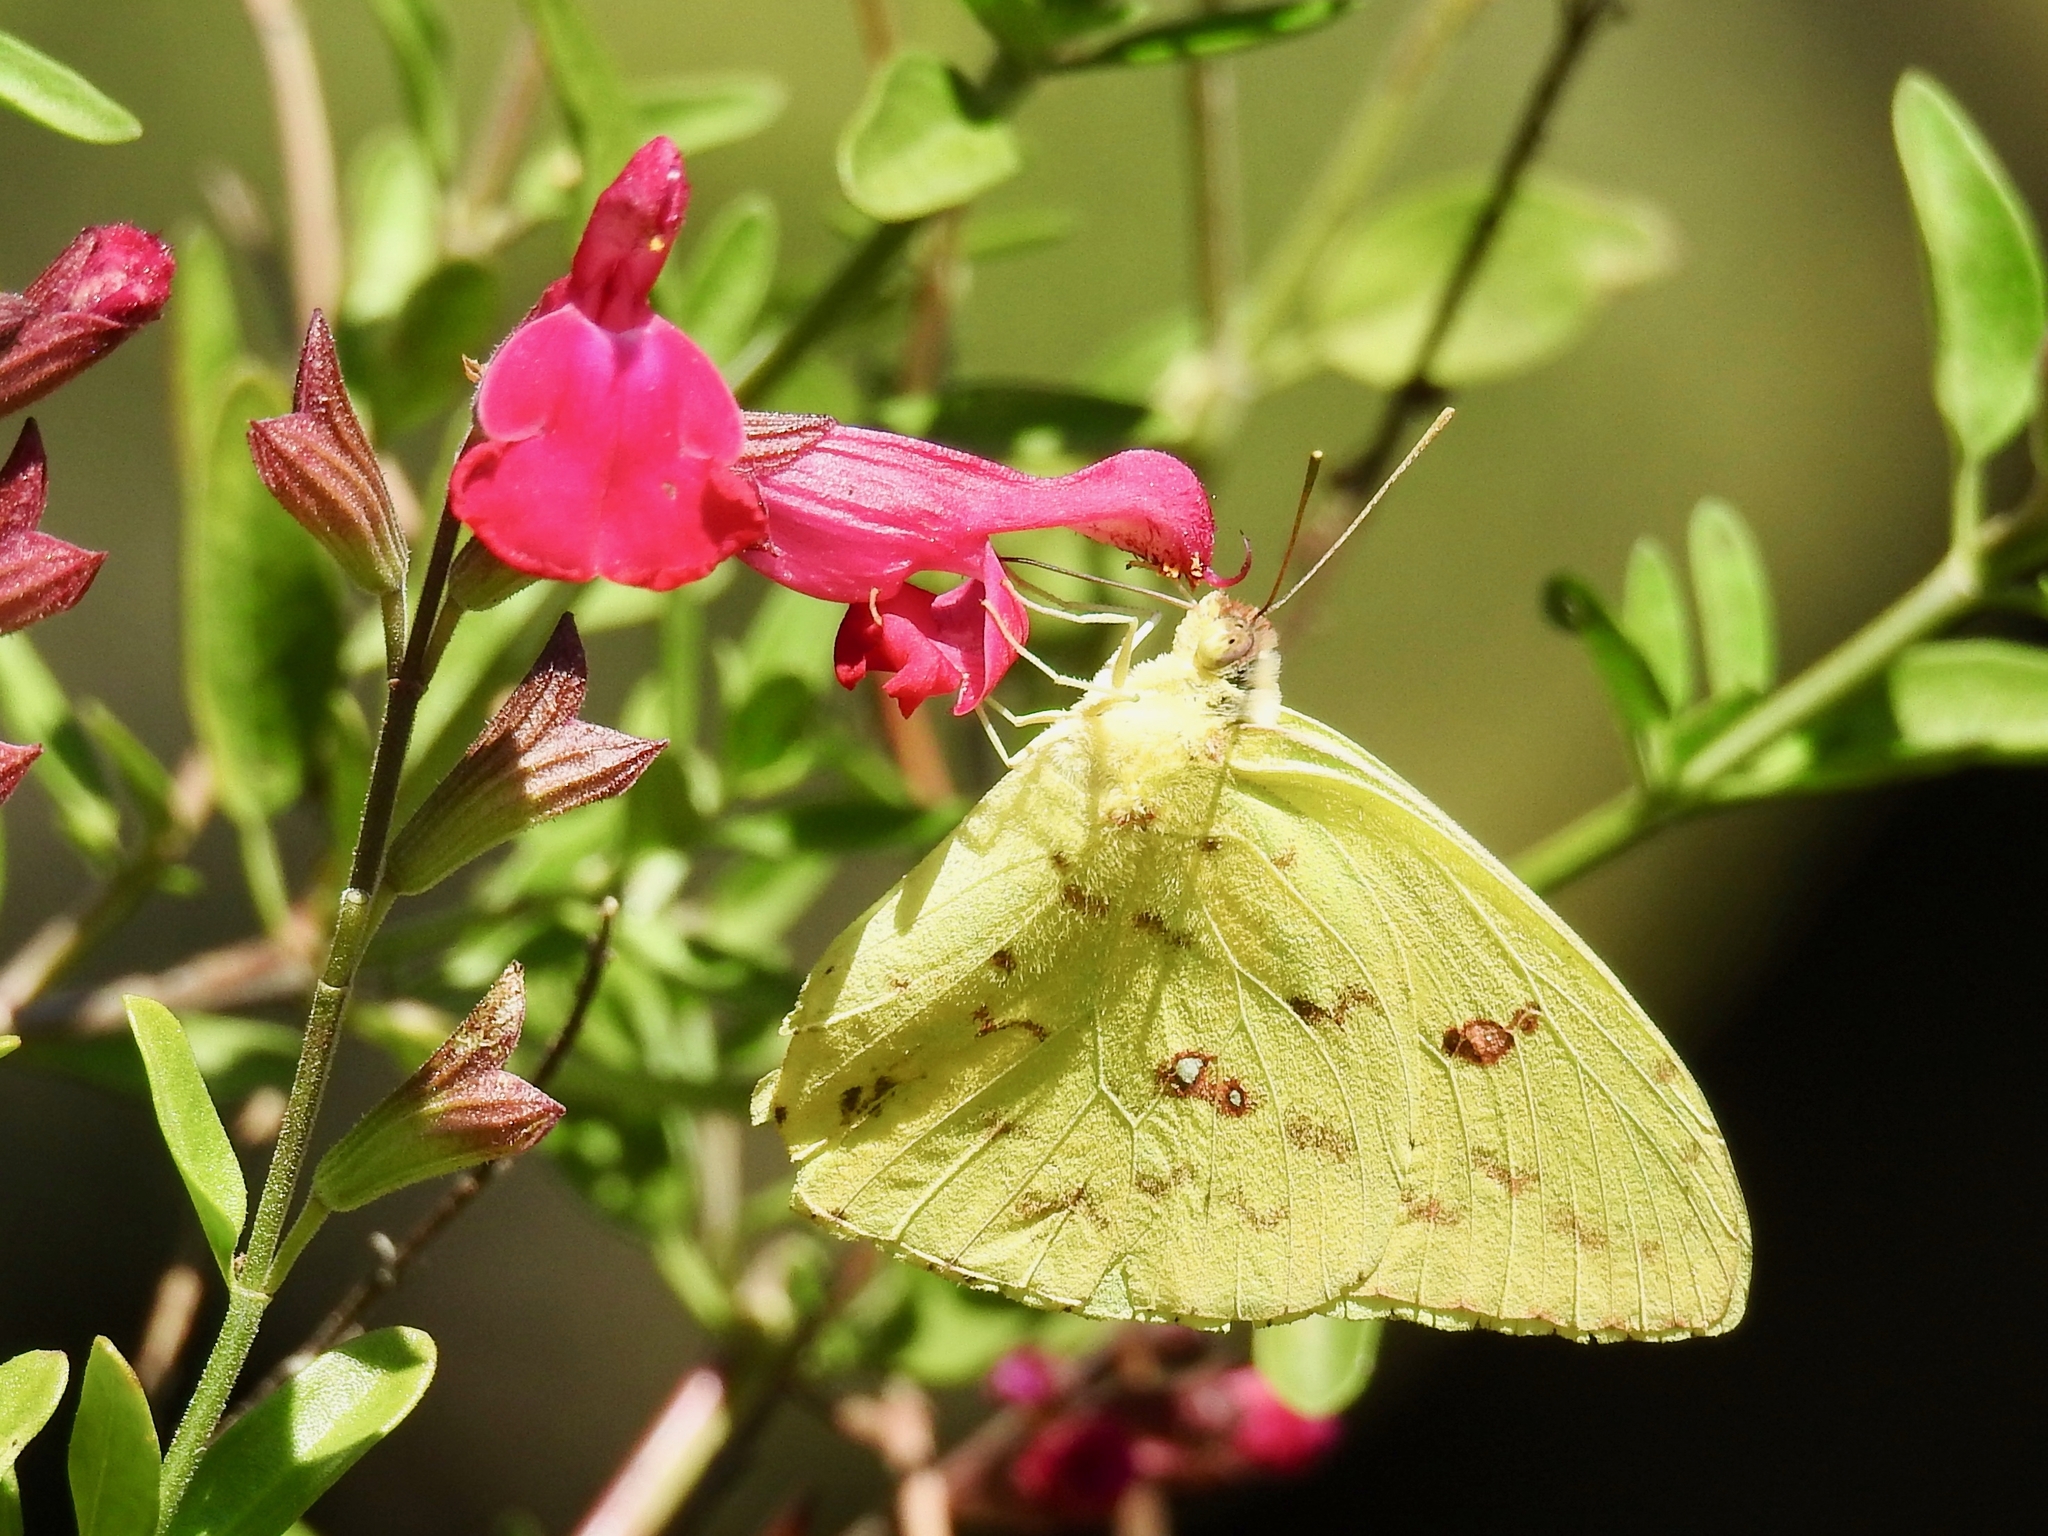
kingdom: Animalia
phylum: Arthropoda
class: Insecta
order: Lepidoptera
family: Pieridae
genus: Phoebis
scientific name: Phoebis sennae
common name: Cloudless sulphur
